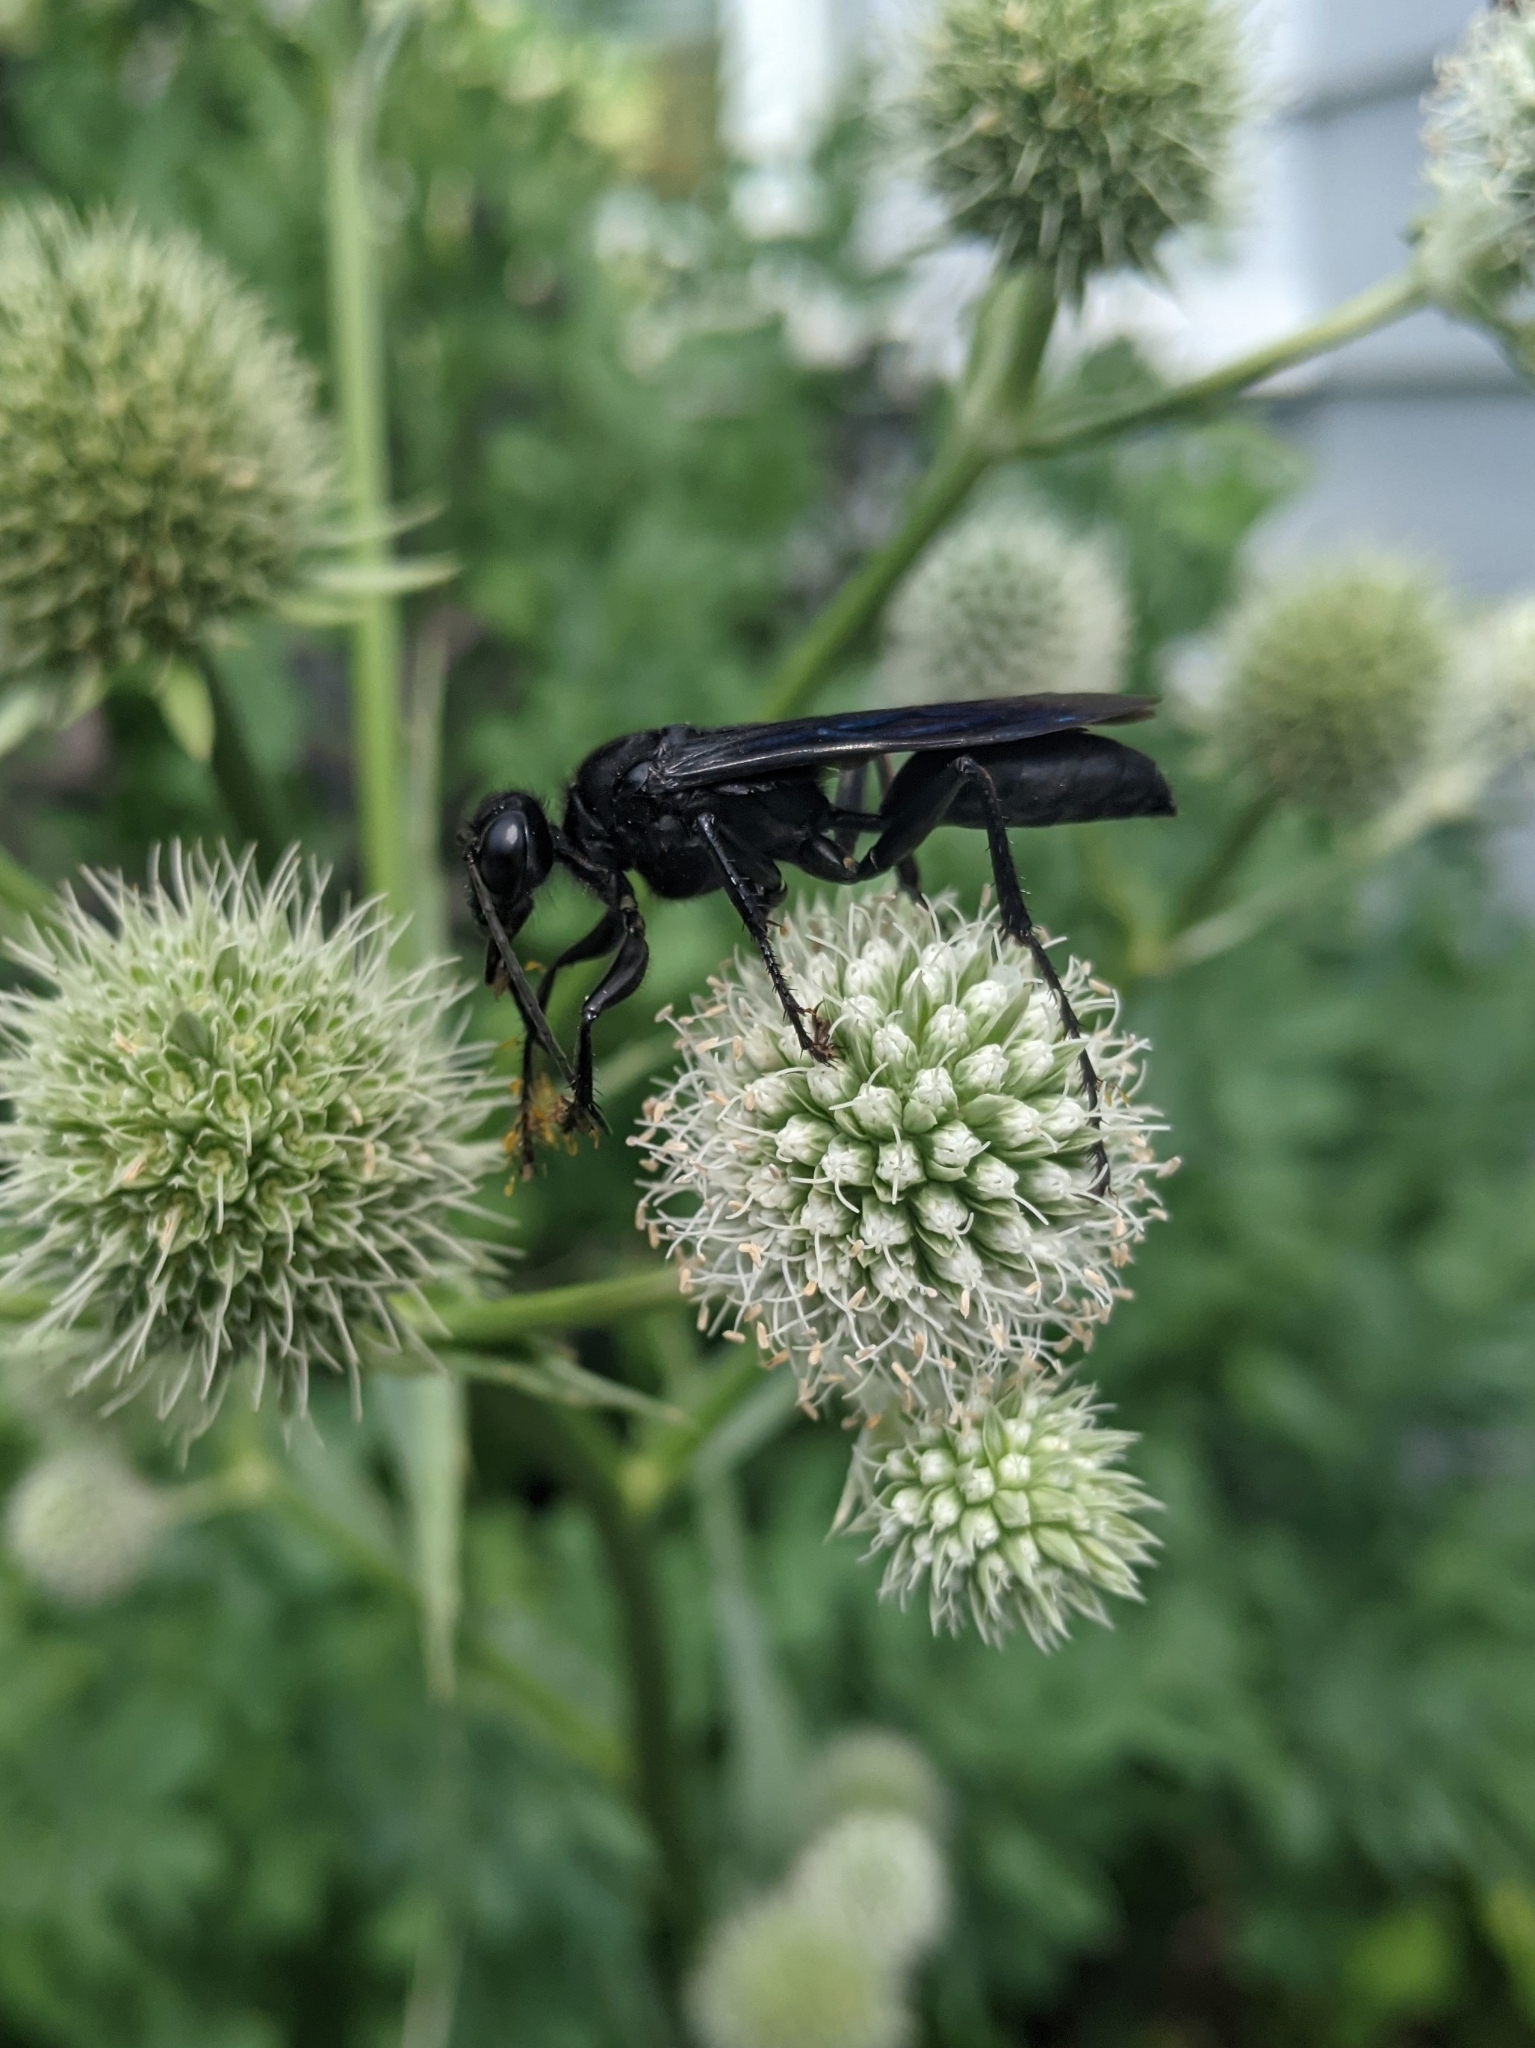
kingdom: Animalia
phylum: Arthropoda
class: Insecta
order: Hymenoptera
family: Sphecidae
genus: Sphex
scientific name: Sphex pensylvanicus
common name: Great black digger wasp
